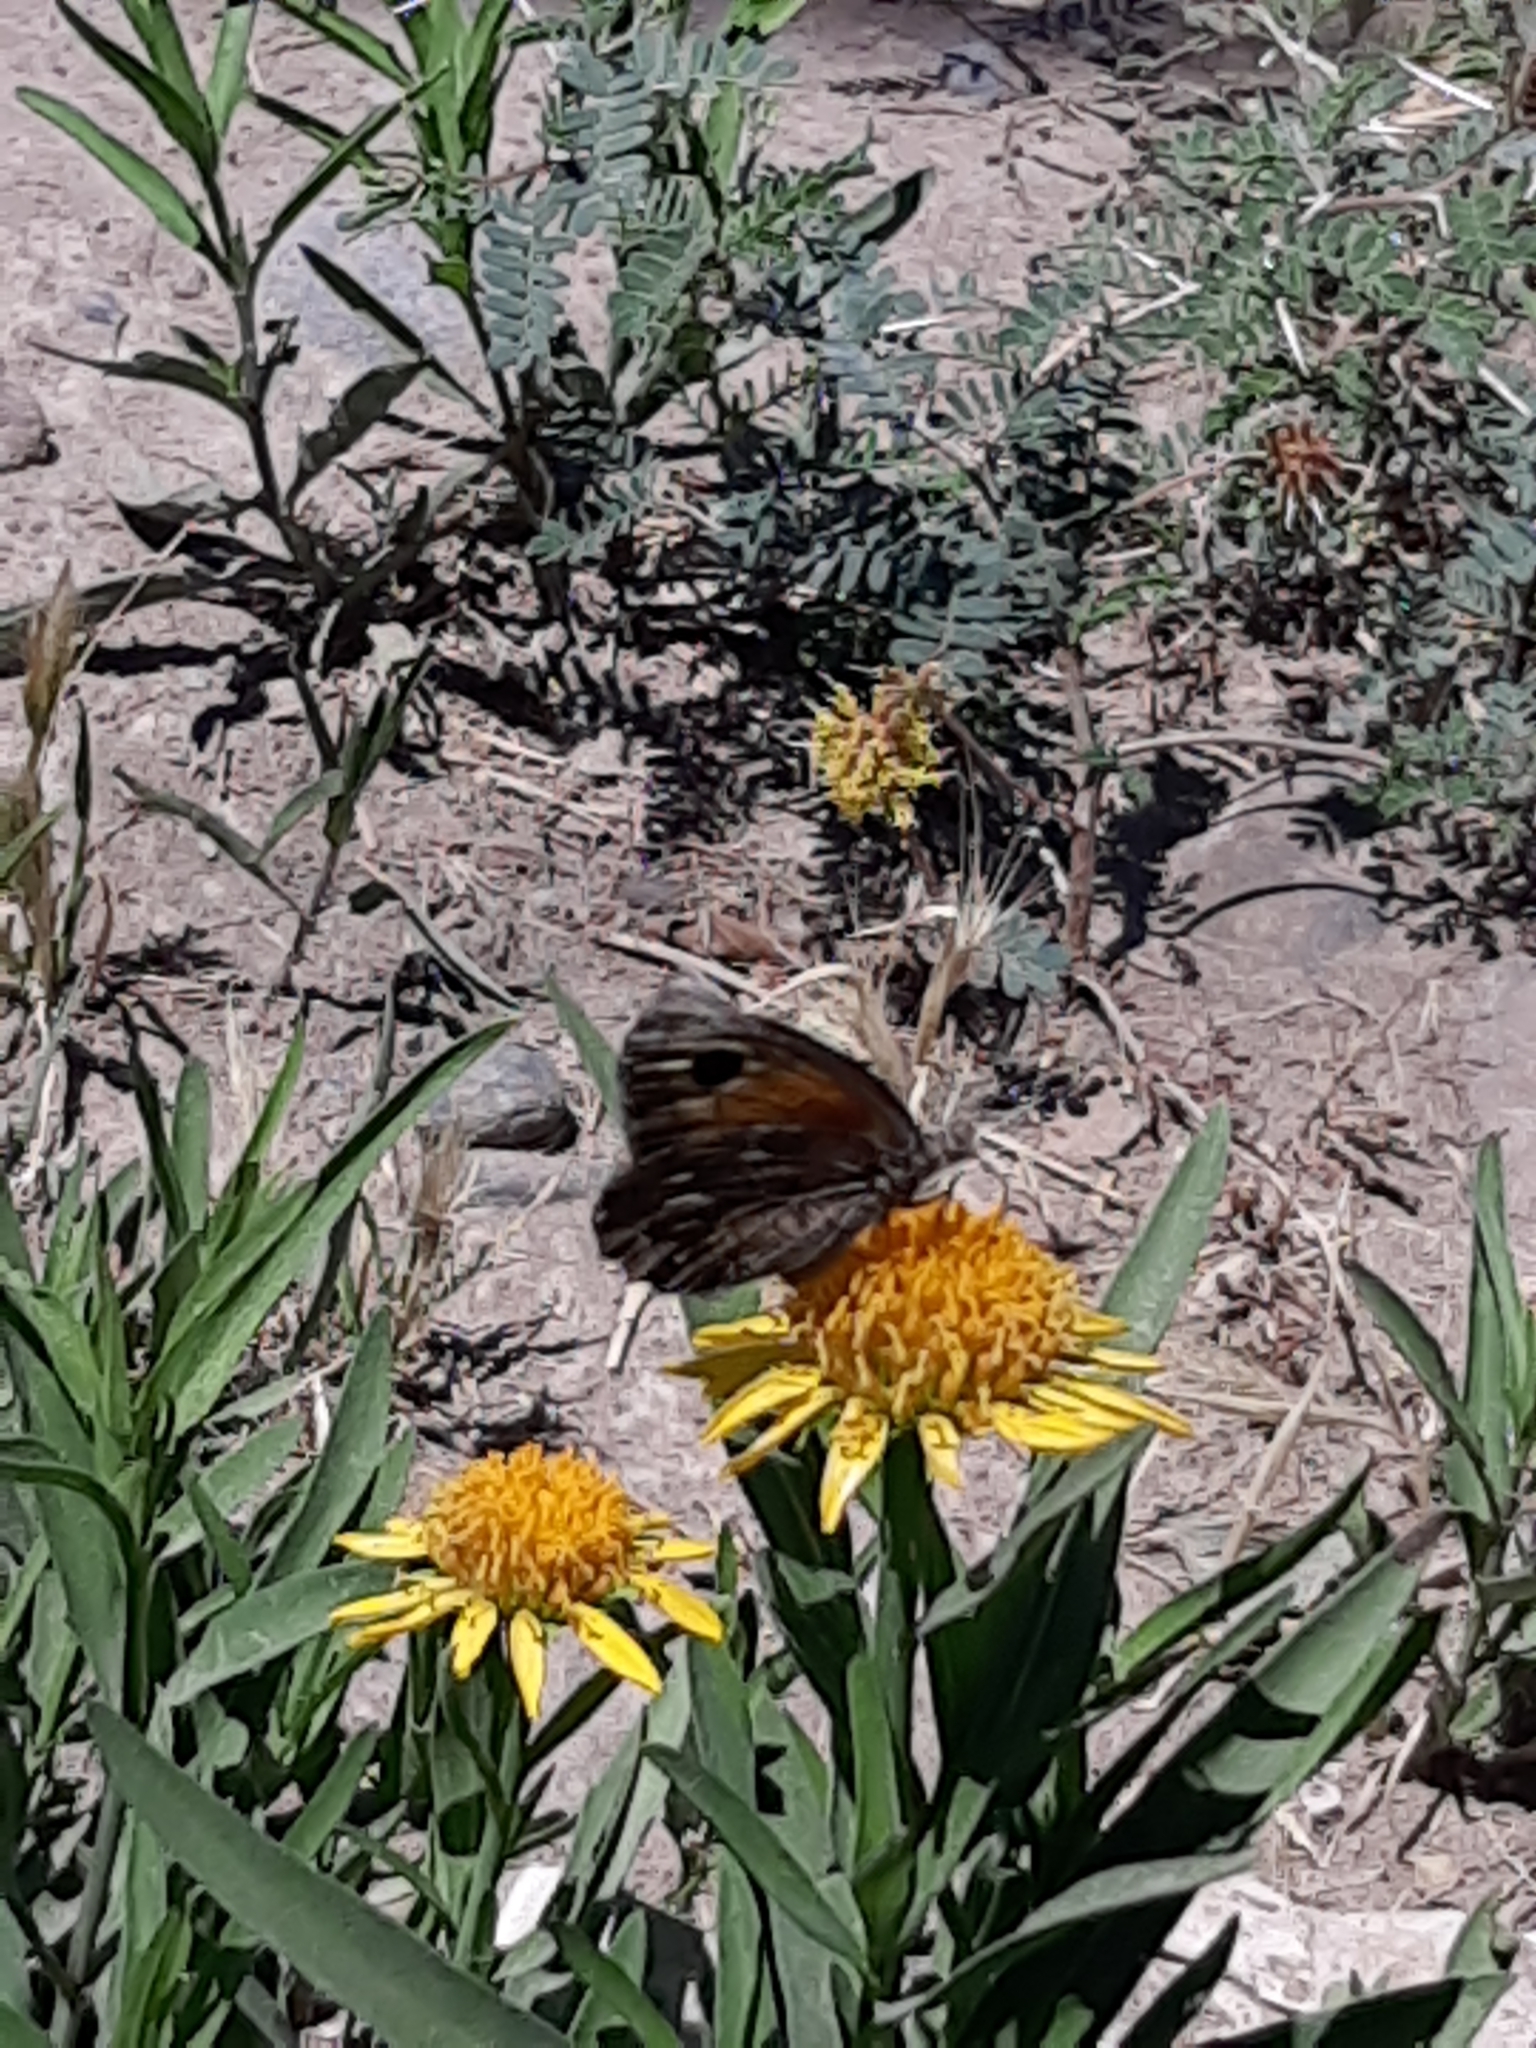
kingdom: Animalia
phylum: Arthropoda
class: Insecta
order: Lepidoptera
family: Nymphalidae
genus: Argyrophorus
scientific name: Argyrophorus
